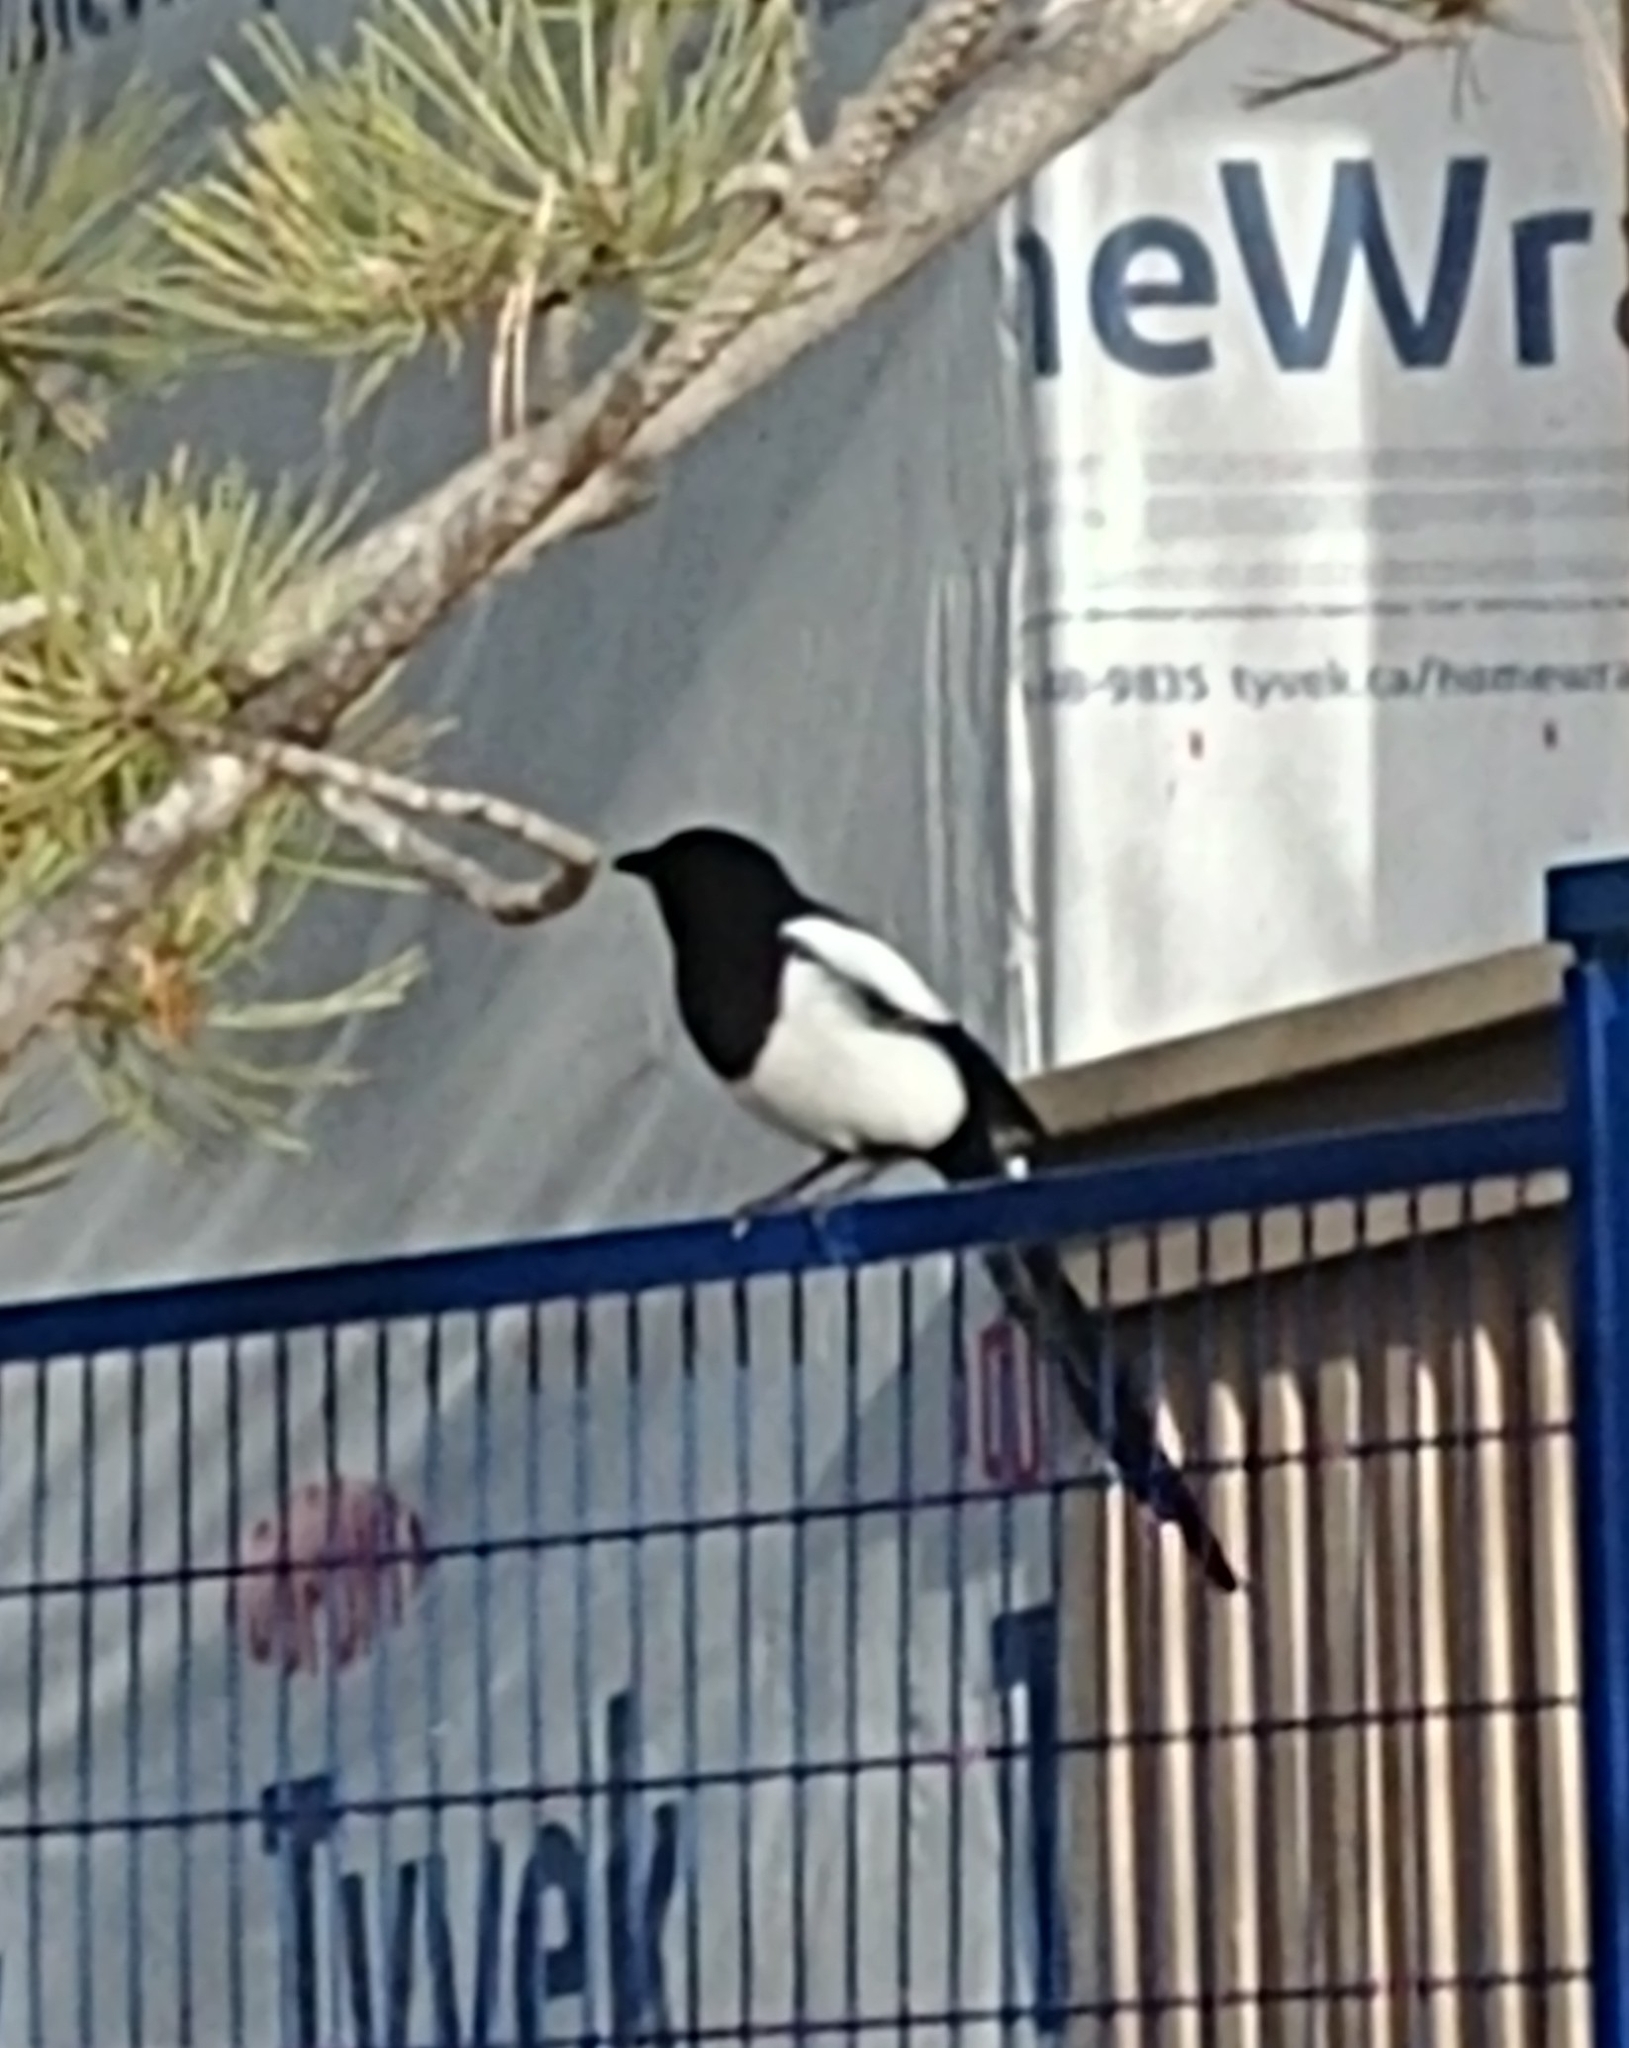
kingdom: Animalia
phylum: Chordata
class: Aves
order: Passeriformes
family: Corvidae
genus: Pica
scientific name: Pica hudsonia
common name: Black-billed magpie
